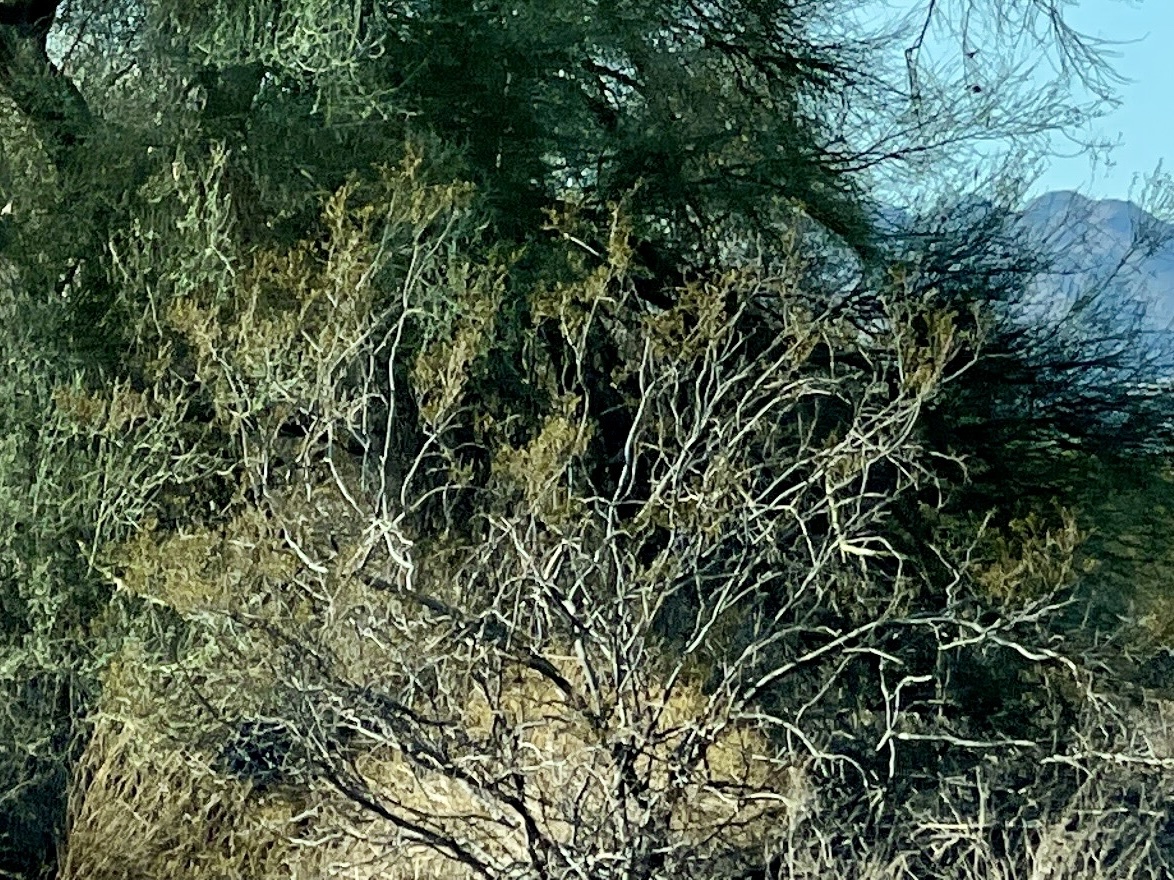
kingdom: Plantae
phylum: Tracheophyta
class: Magnoliopsida
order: Zygophyllales
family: Zygophyllaceae
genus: Larrea
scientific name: Larrea tridentata
